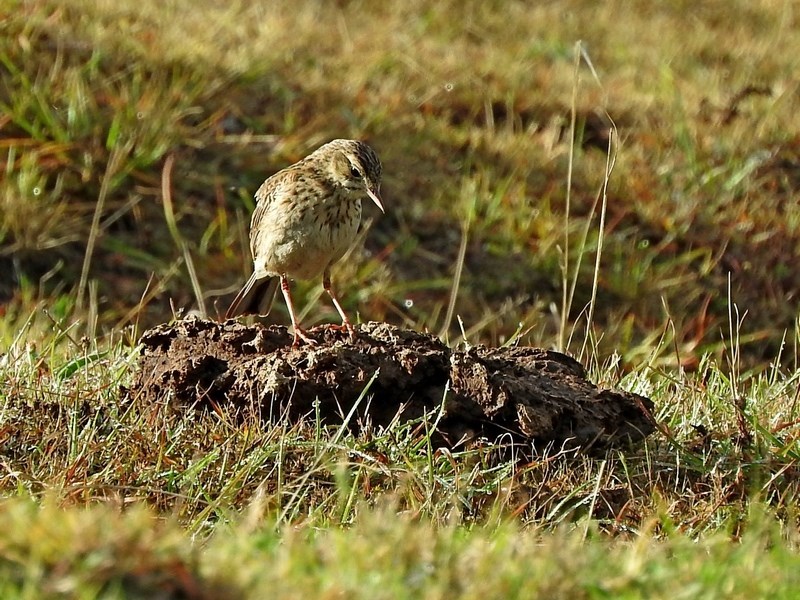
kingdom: Animalia
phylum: Chordata
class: Aves
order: Passeriformes
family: Motacillidae
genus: Anthus
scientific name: Anthus australis
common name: Australian pipit
